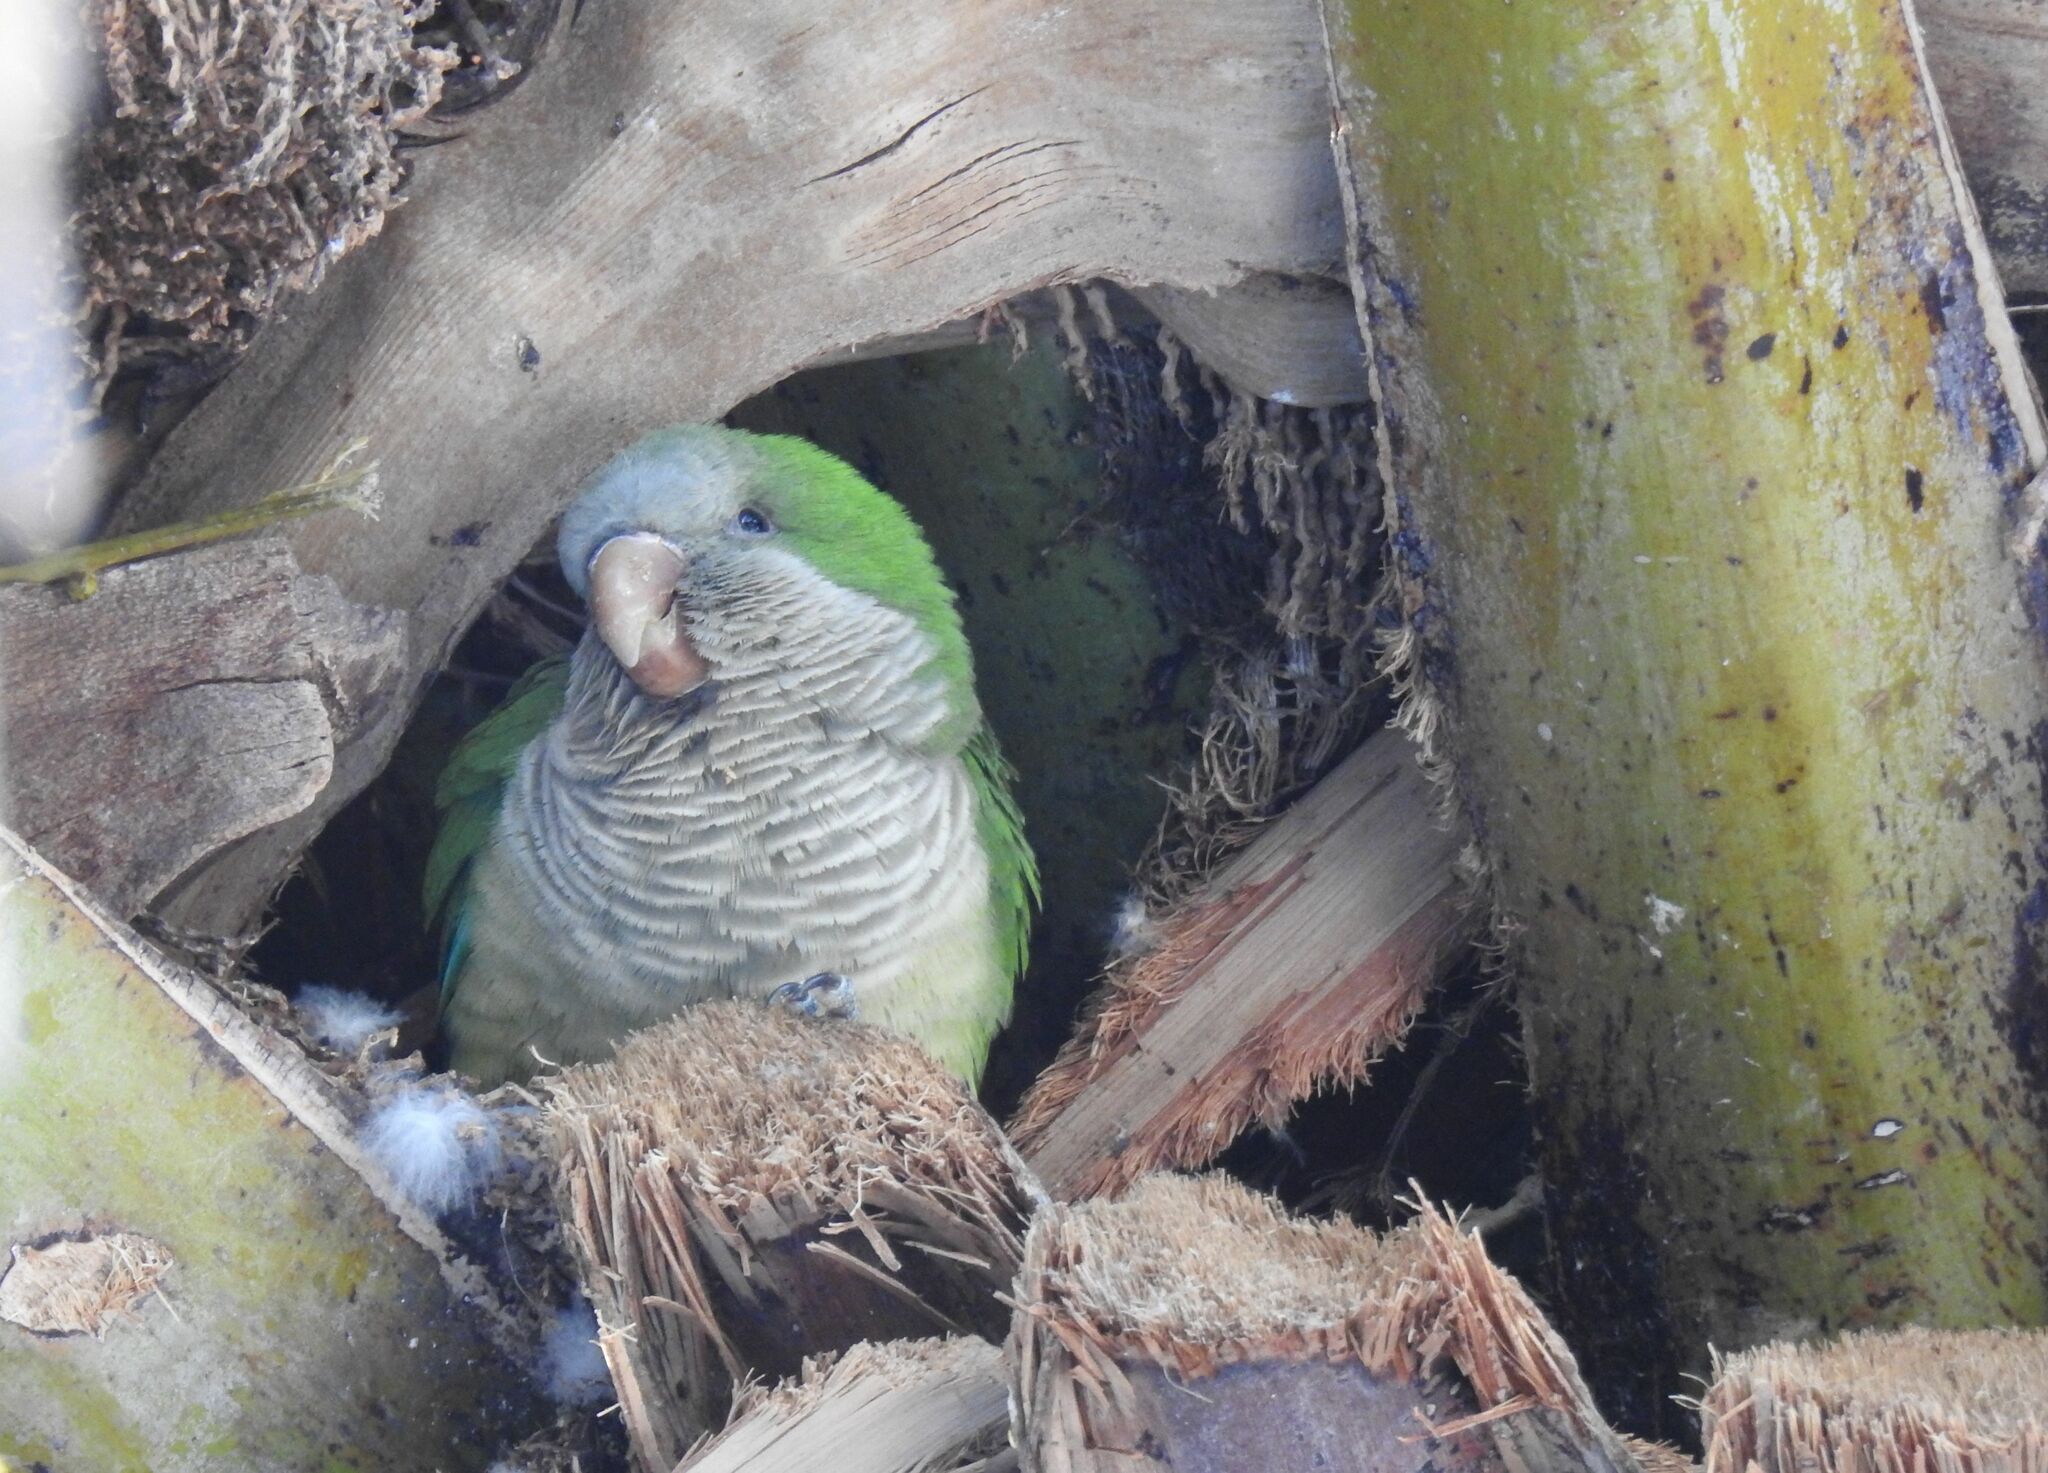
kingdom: Animalia
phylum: Chordata
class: Aves
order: Psittaciformes
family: Psittacidae
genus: Myiopsitta
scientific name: Myiopsitta monachus
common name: Monk parakeet
